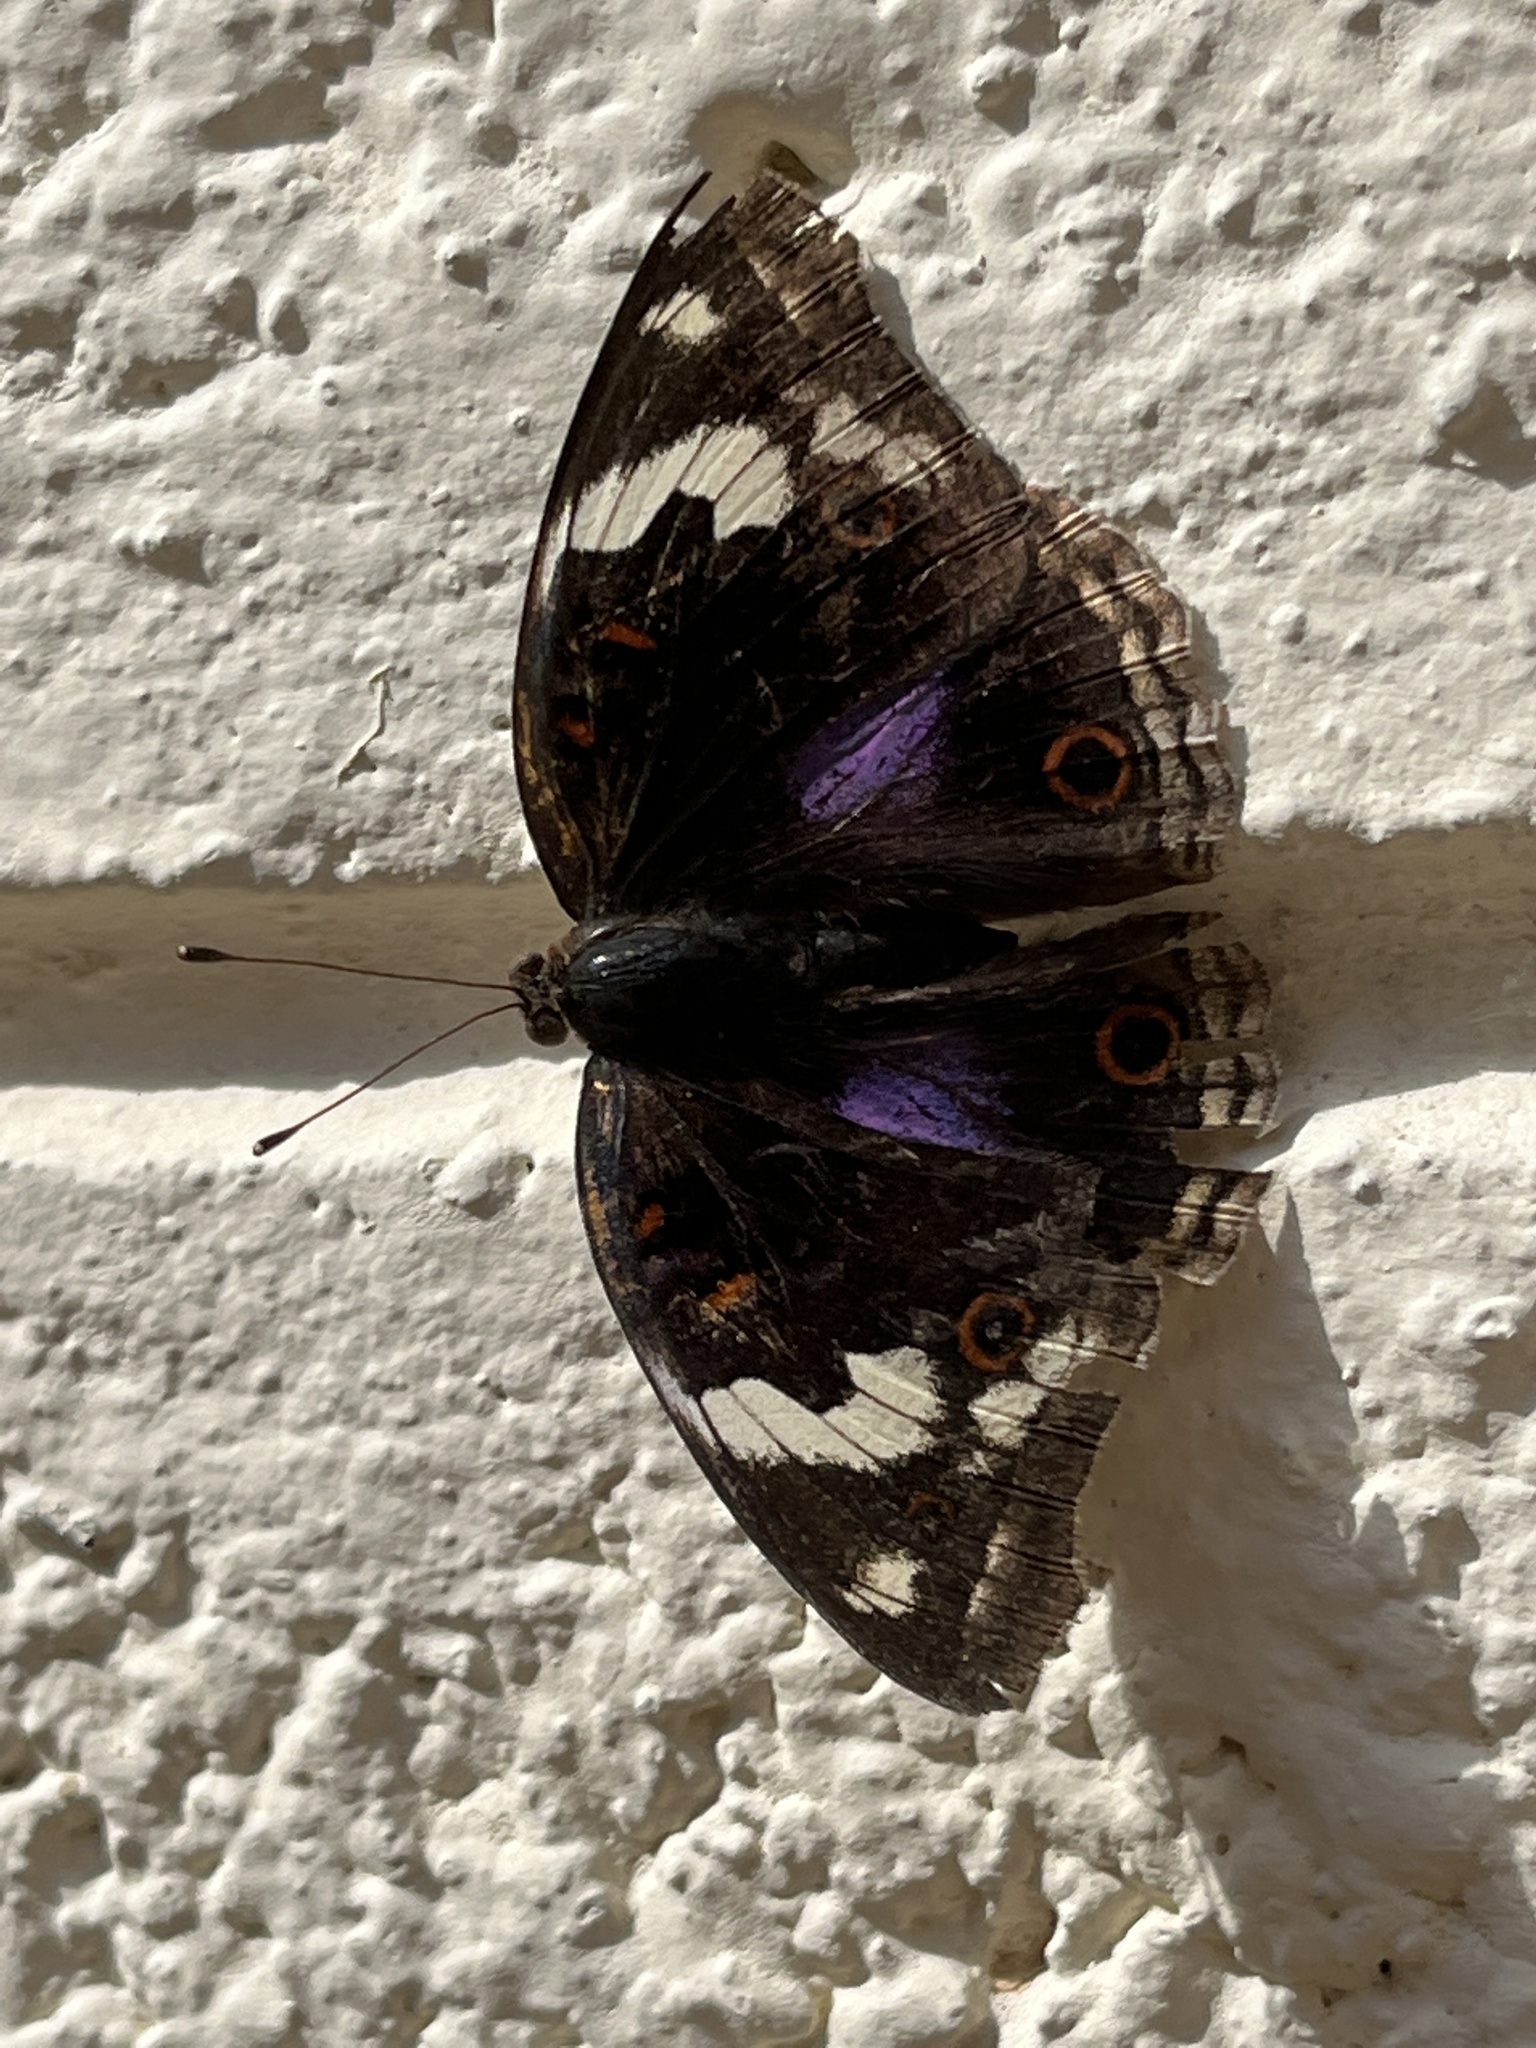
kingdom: Animalia
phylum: Arthropoda
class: Insecta
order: Lepidoptera
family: Nymphalidae
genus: Junonia
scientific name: Junonia oenone
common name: Dark blue pansy
